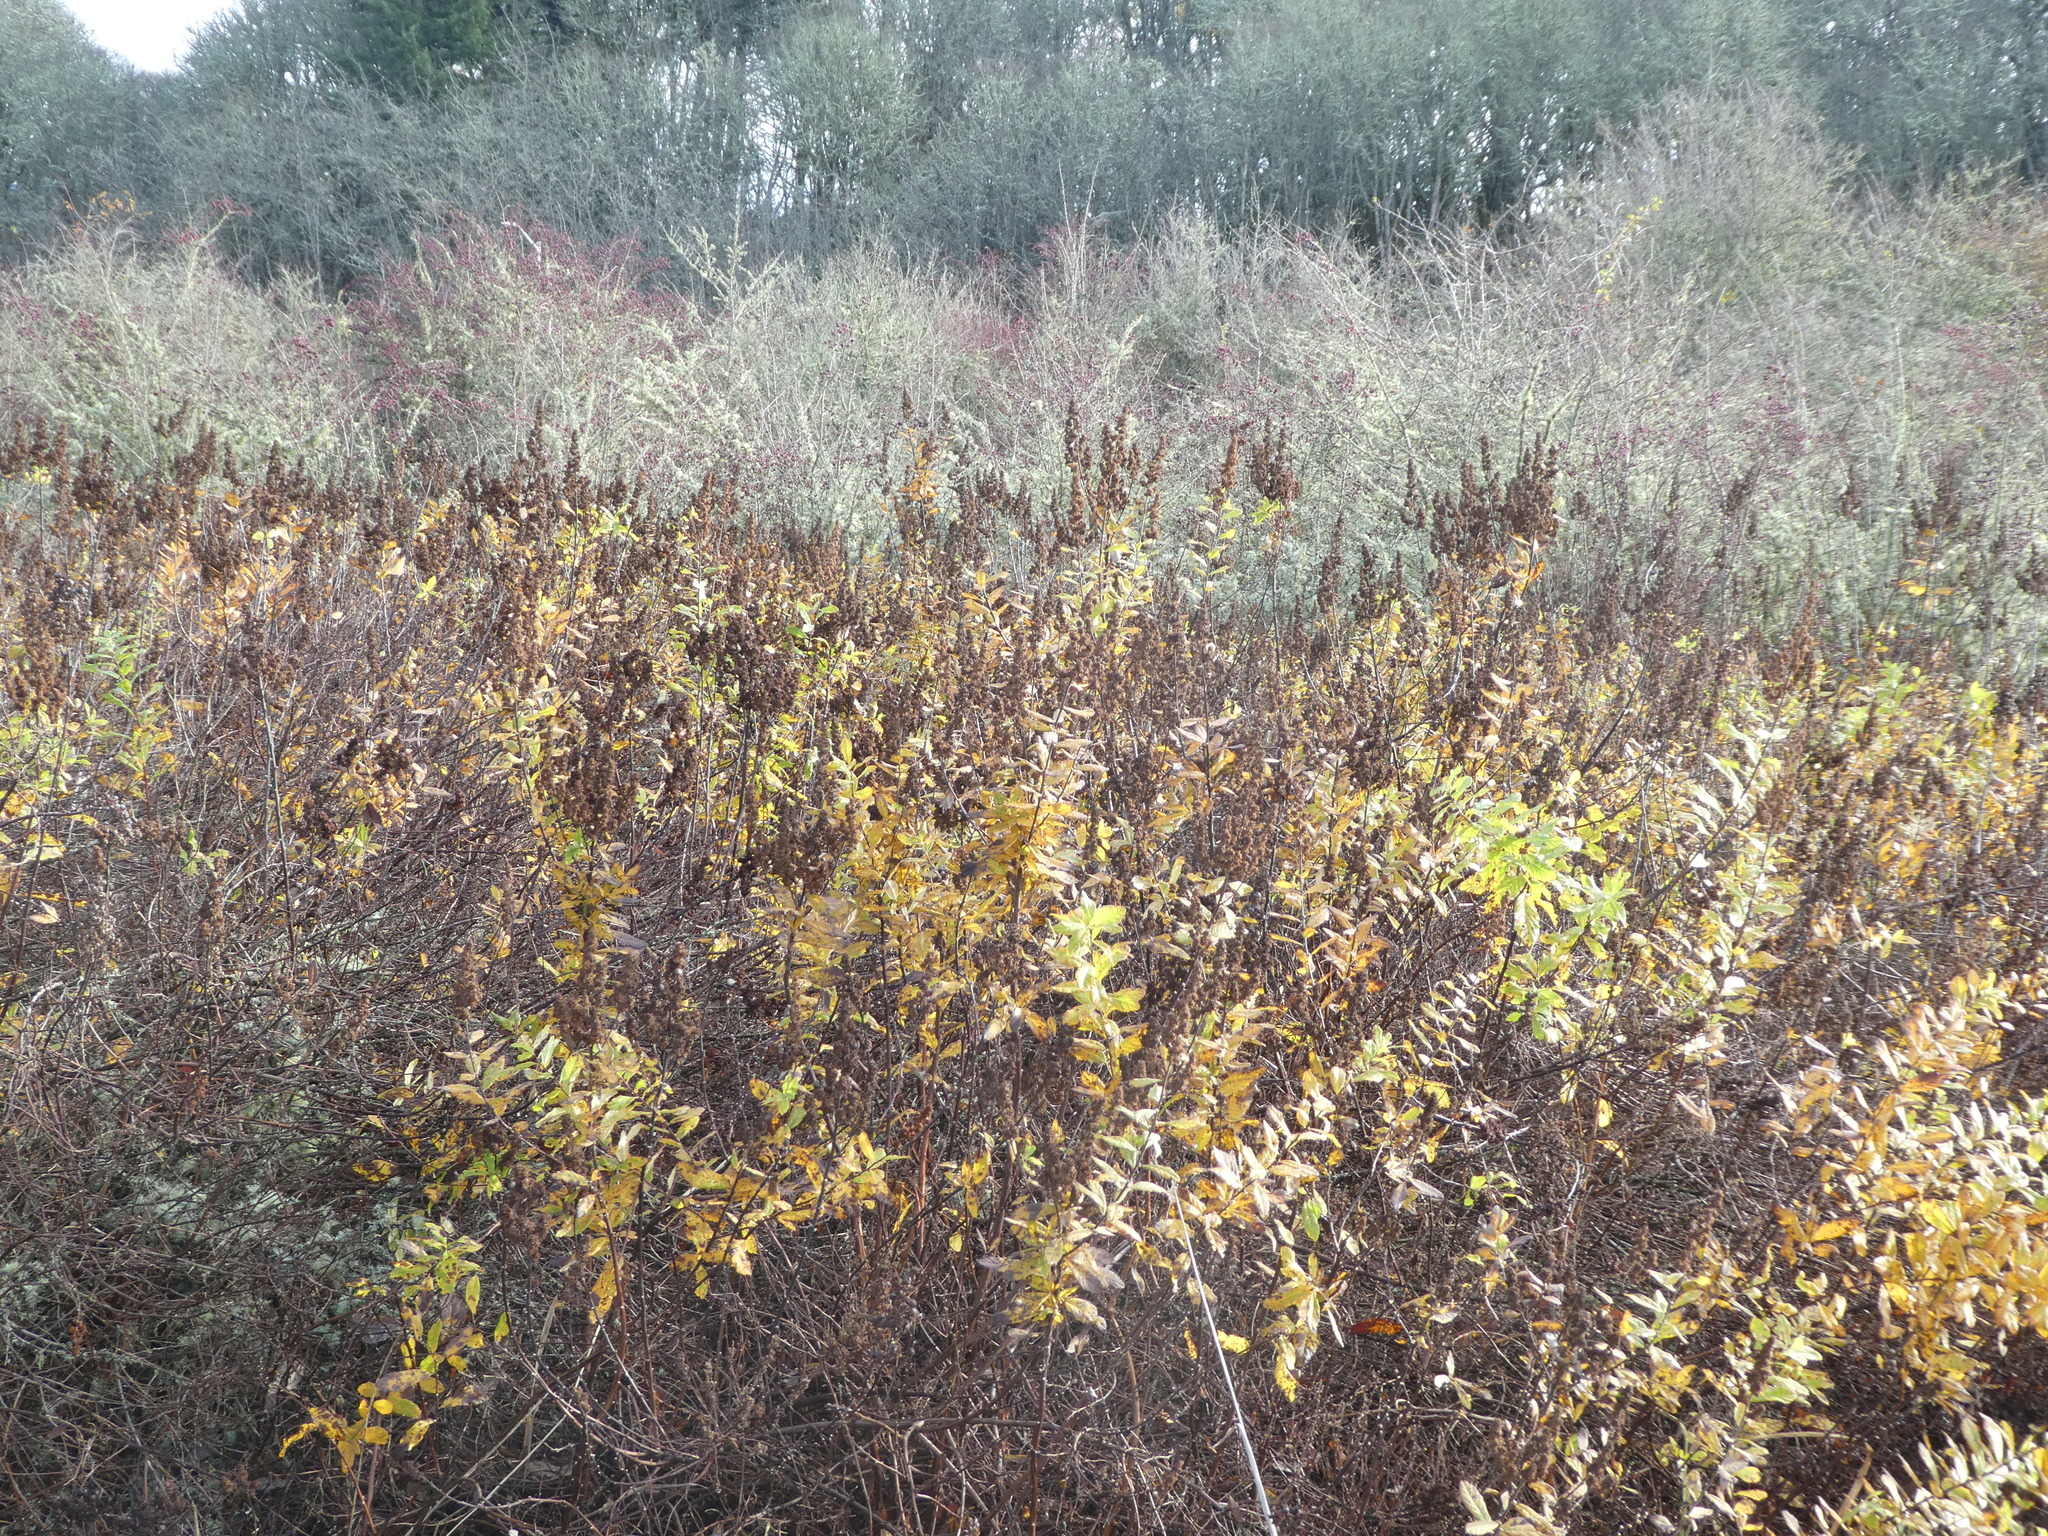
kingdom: Plantae
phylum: Tracheophyta
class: Magnoliopsida
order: Rosales
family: Rosaceae
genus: Spiraea
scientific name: Spiraea douglasii
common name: Steeplebush
